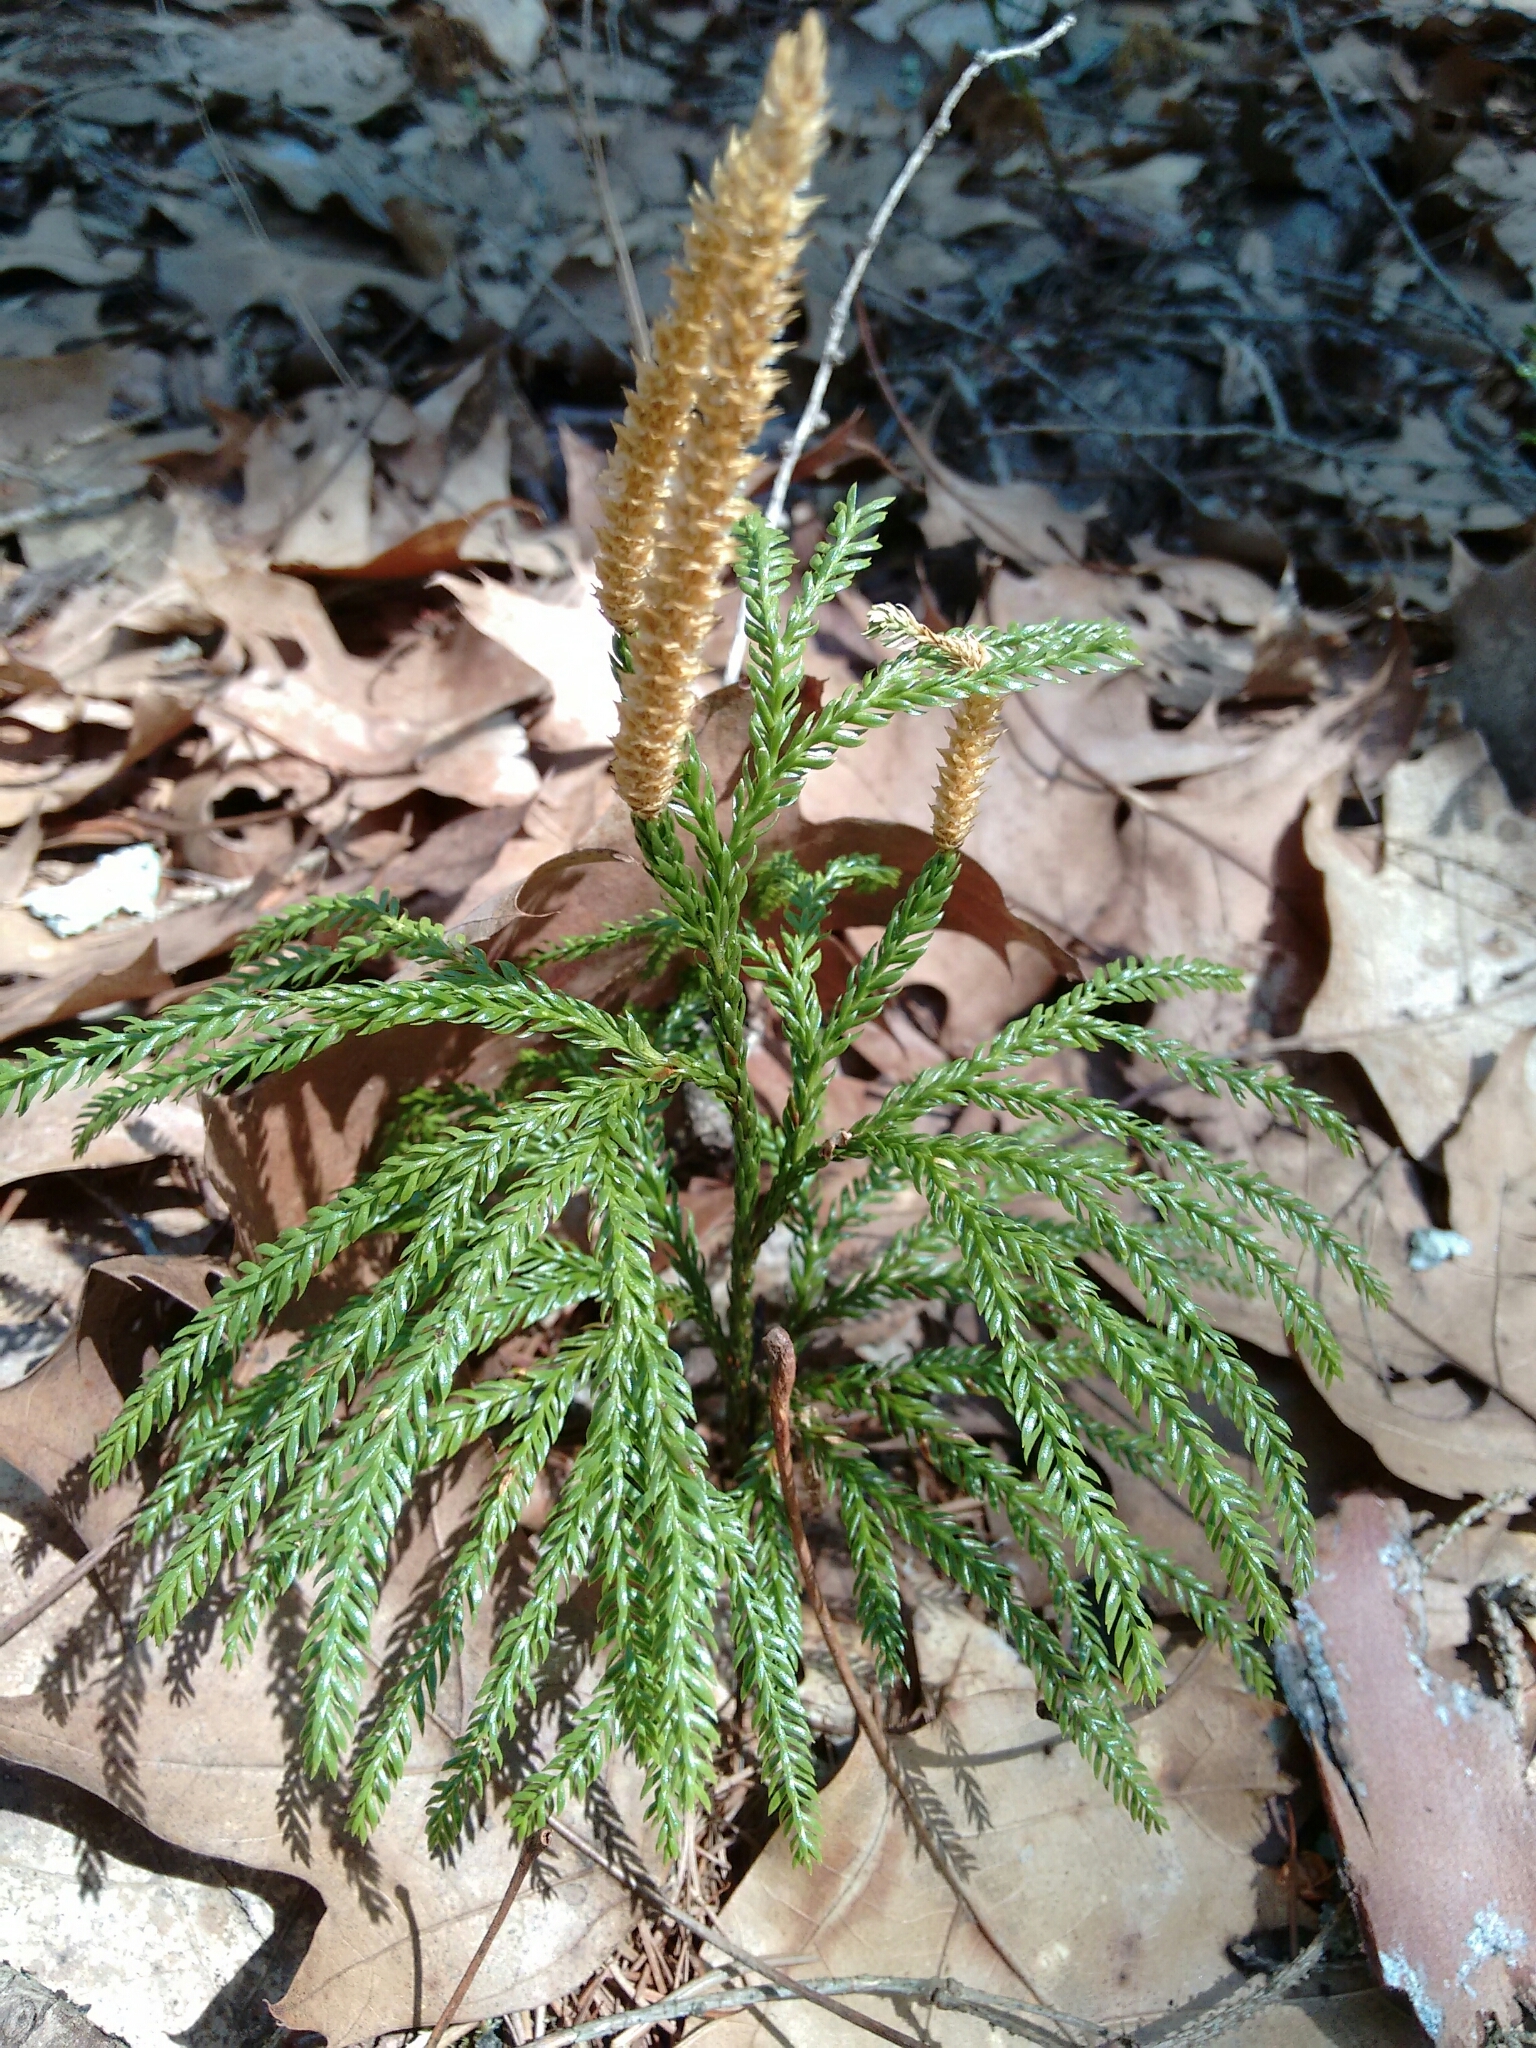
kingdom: Plantae
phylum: Tracheophyta
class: Lycopodiopsida
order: Lycopodiales
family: Lycopodiaceae
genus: Dendrolycopodium
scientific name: Dendrolycopodium obscurum
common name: Common ground-pine
